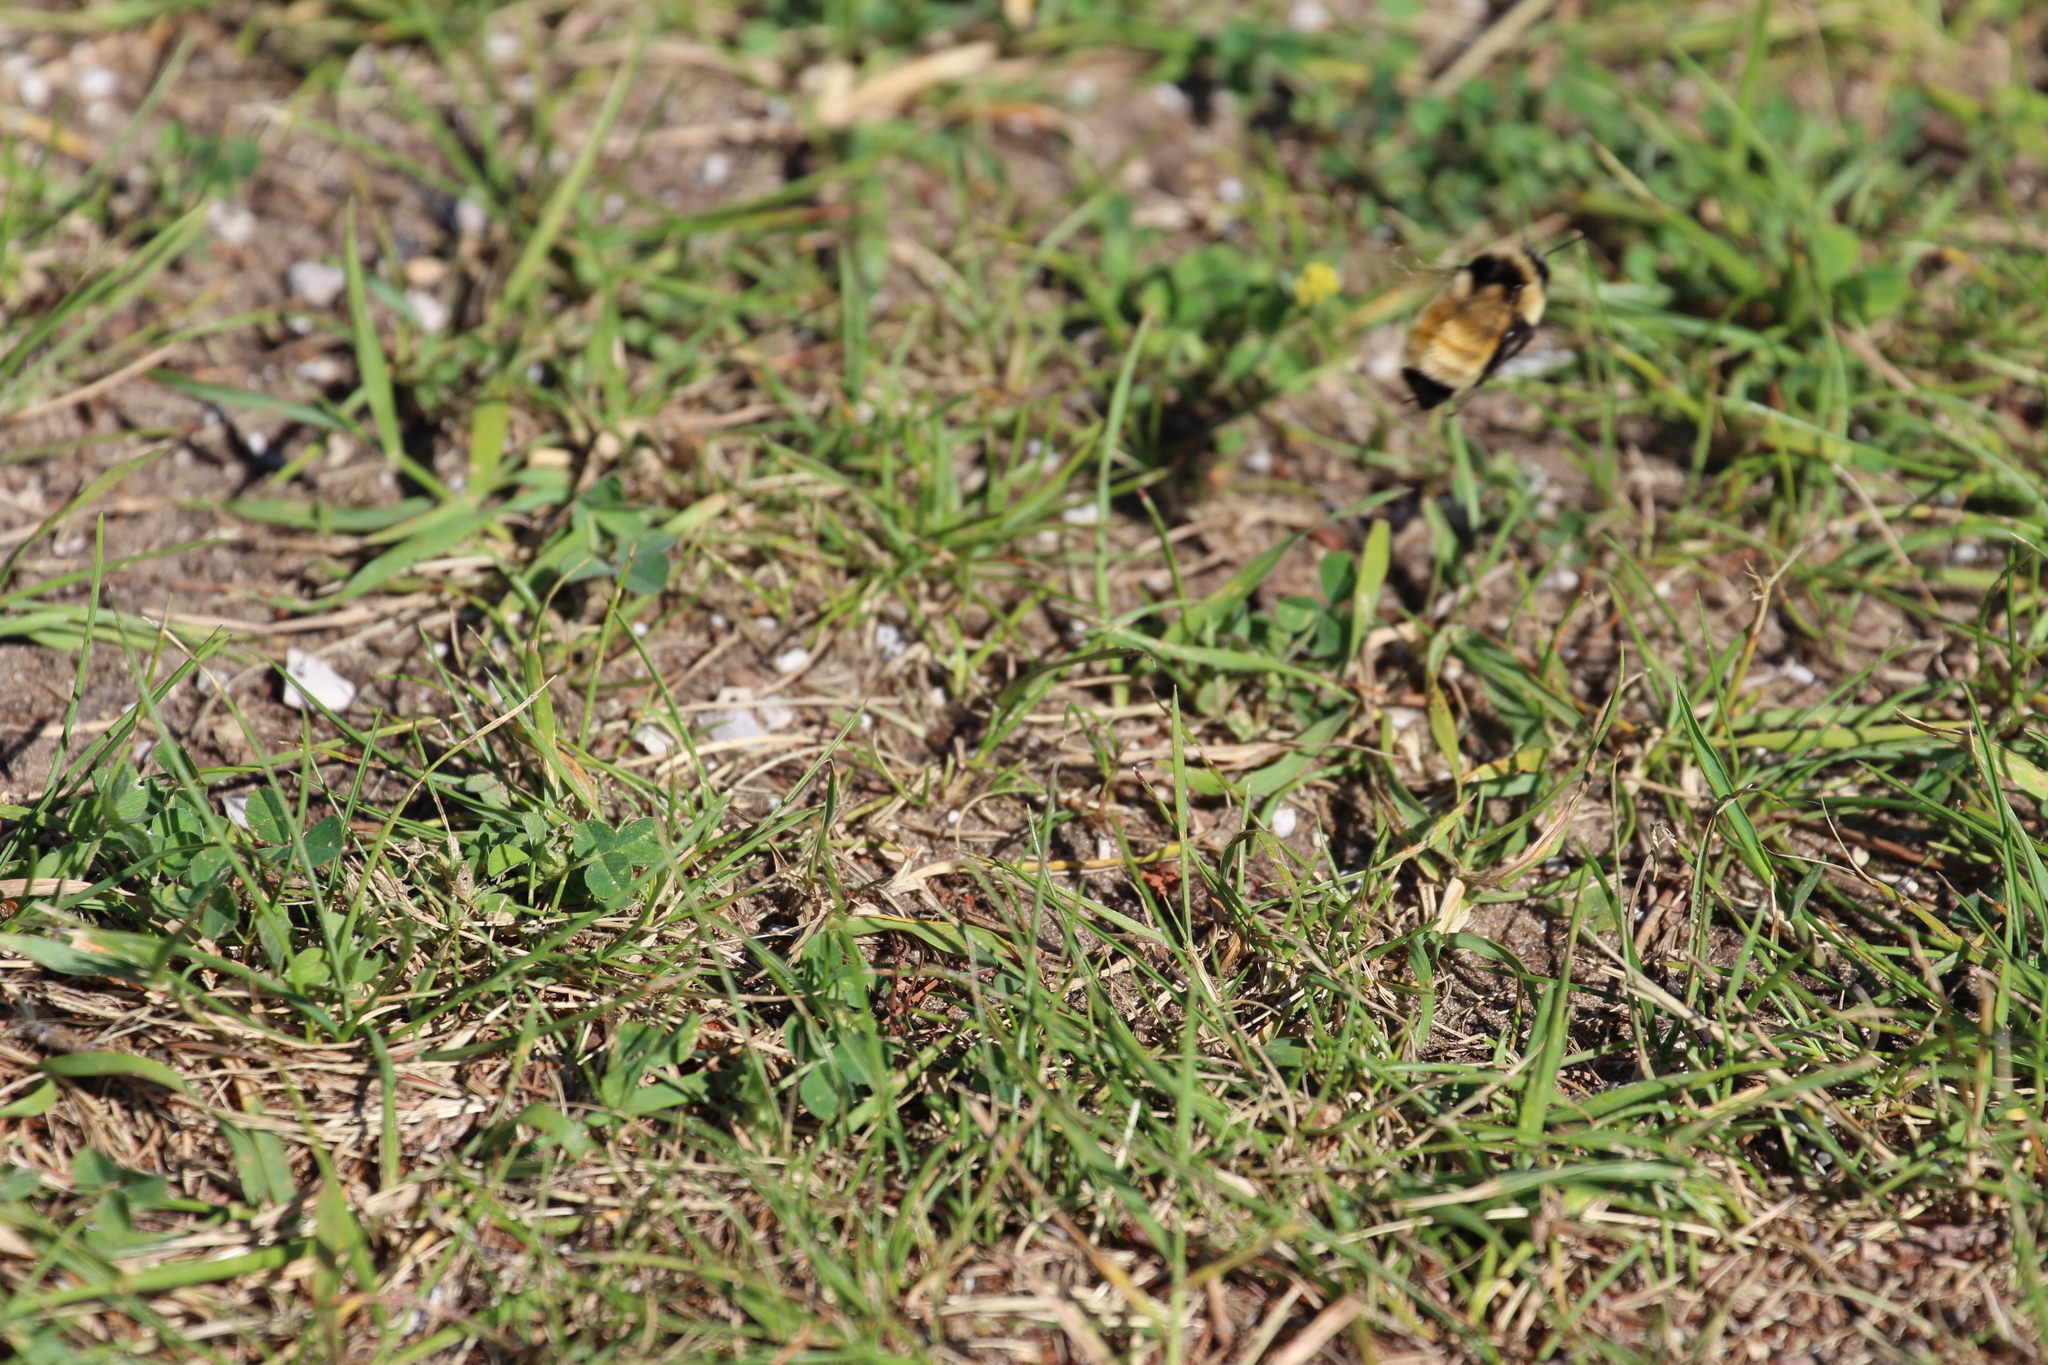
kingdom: Animalia
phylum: Arthropoda
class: Insecta
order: Hymenoptera
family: Apidae
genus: Bombus
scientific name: Bombus ternarius
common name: Tri-colored bumble bee
